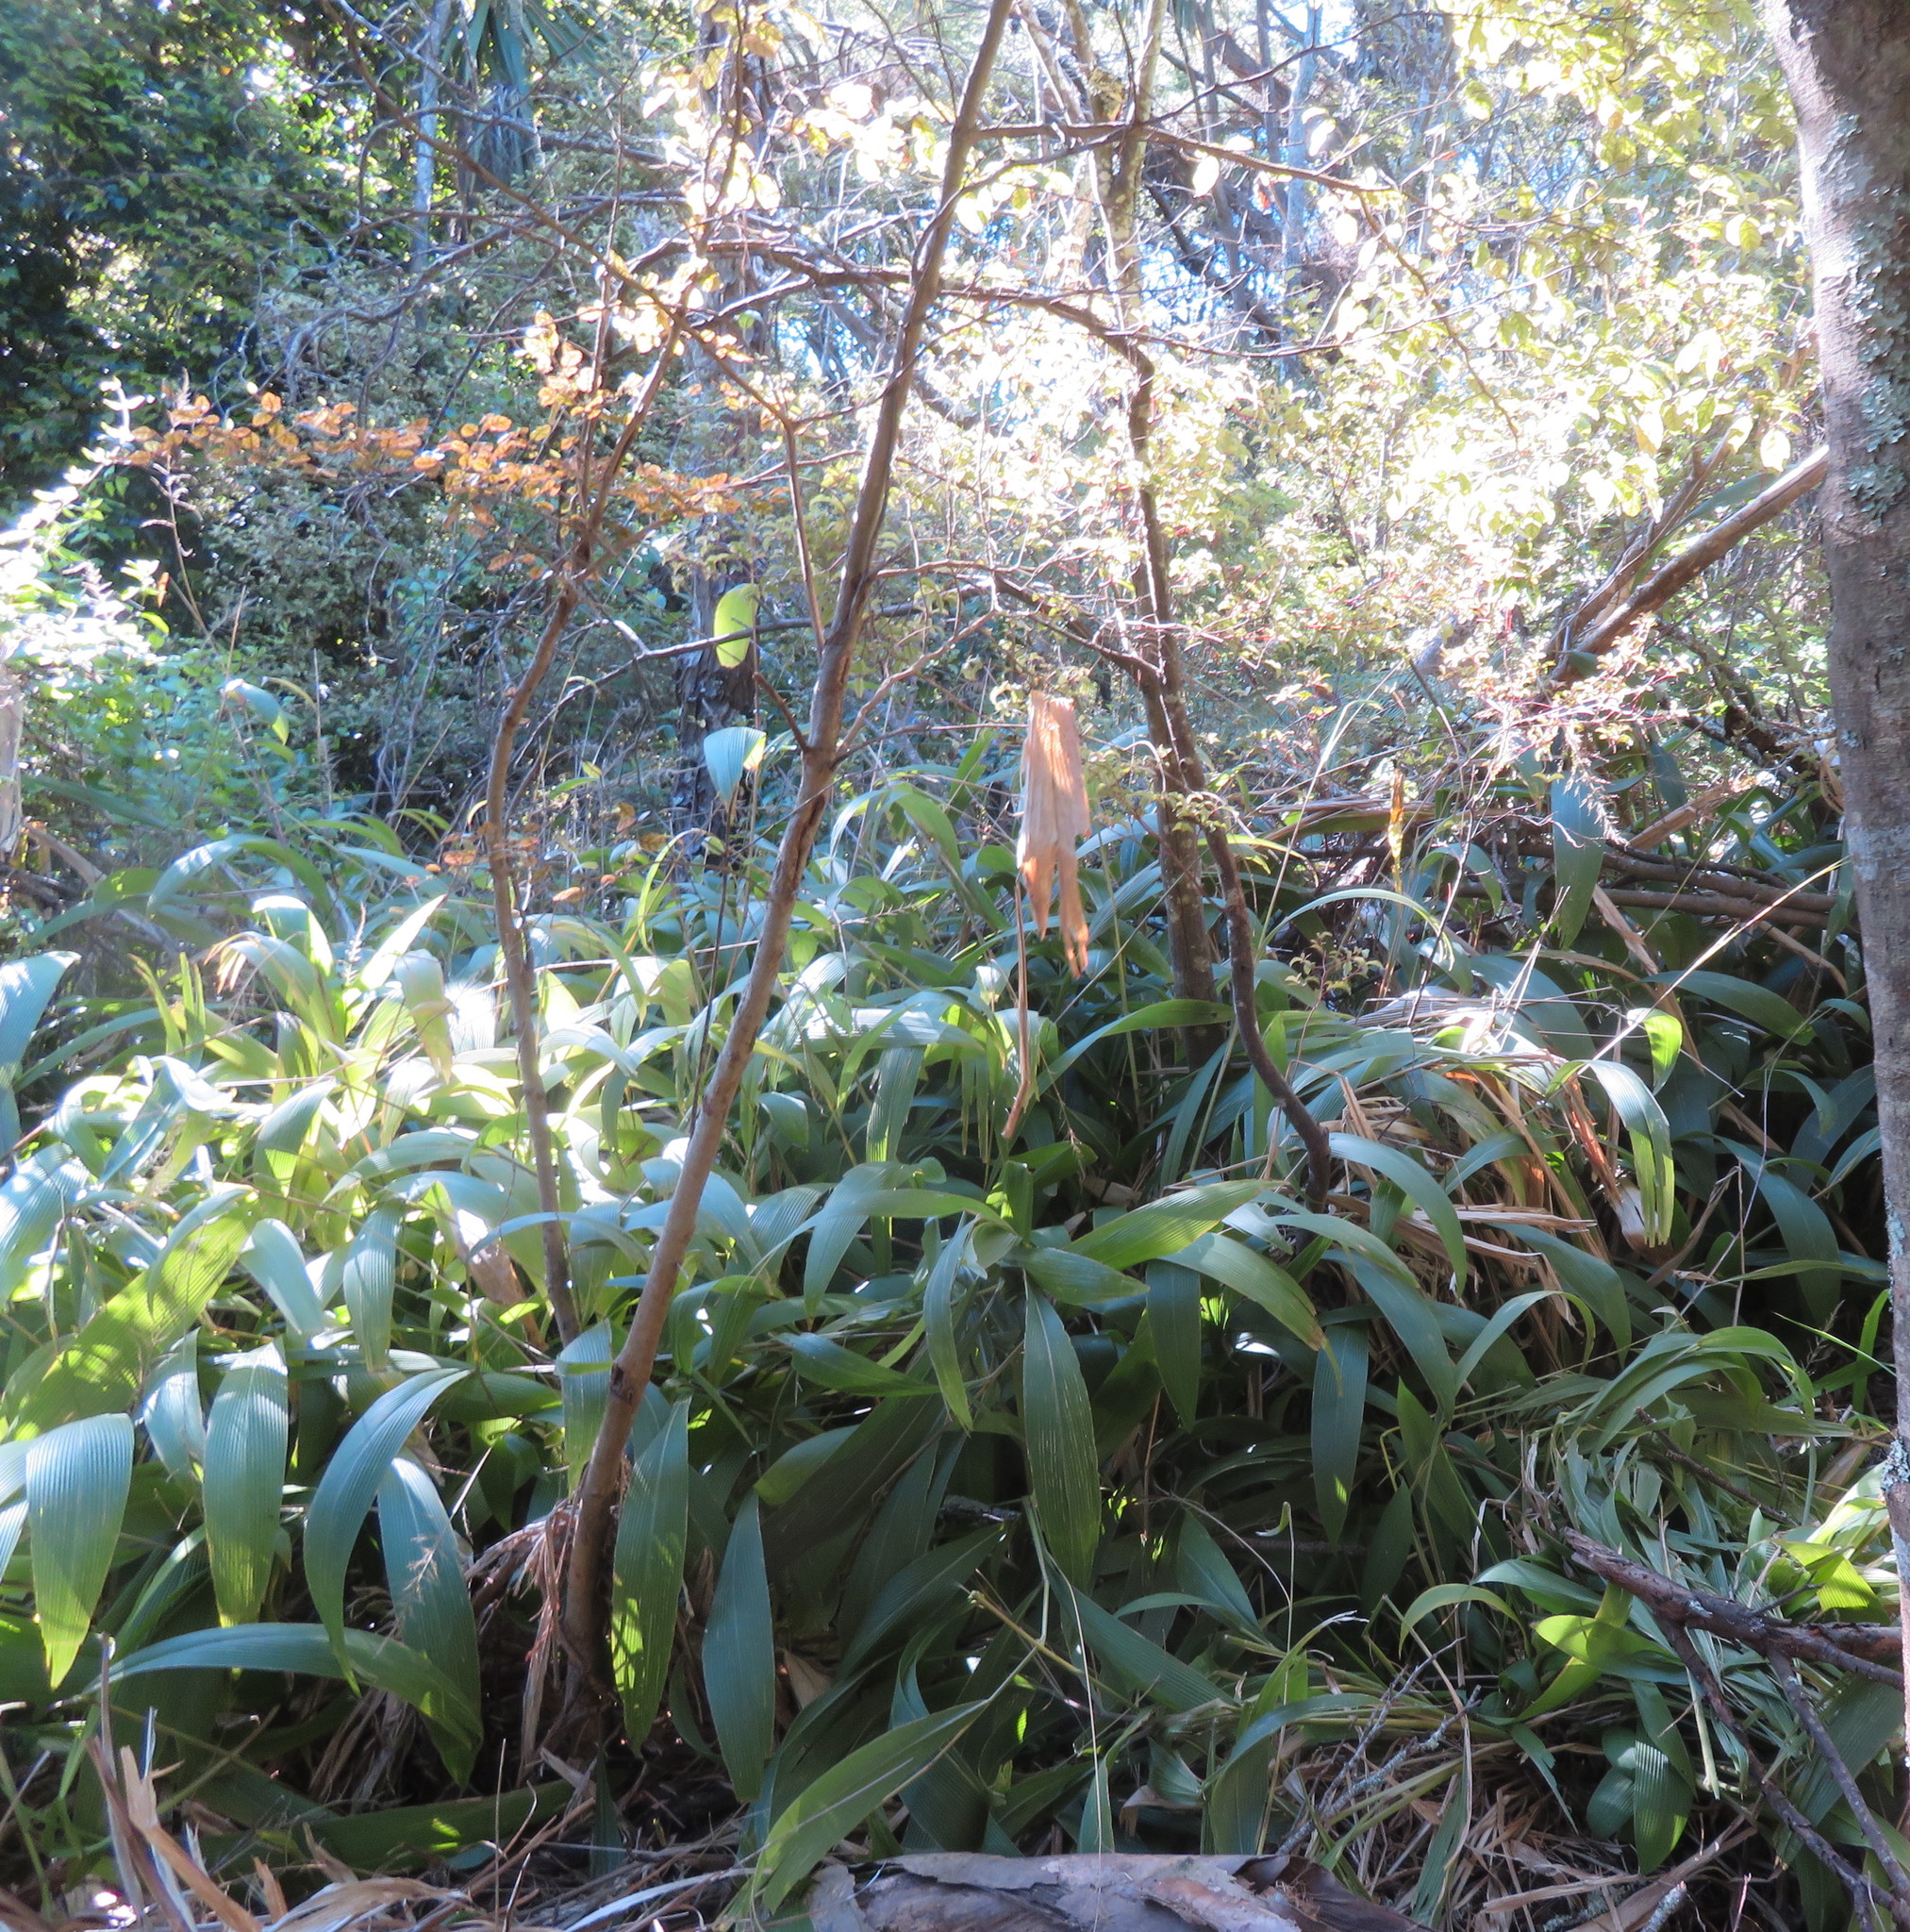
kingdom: Plantae
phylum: Tracheophyta
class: Magnoliopsida
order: Asterales
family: Rousseaceae
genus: Carpodetus
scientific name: Carpodetus serratus
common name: White mapau
